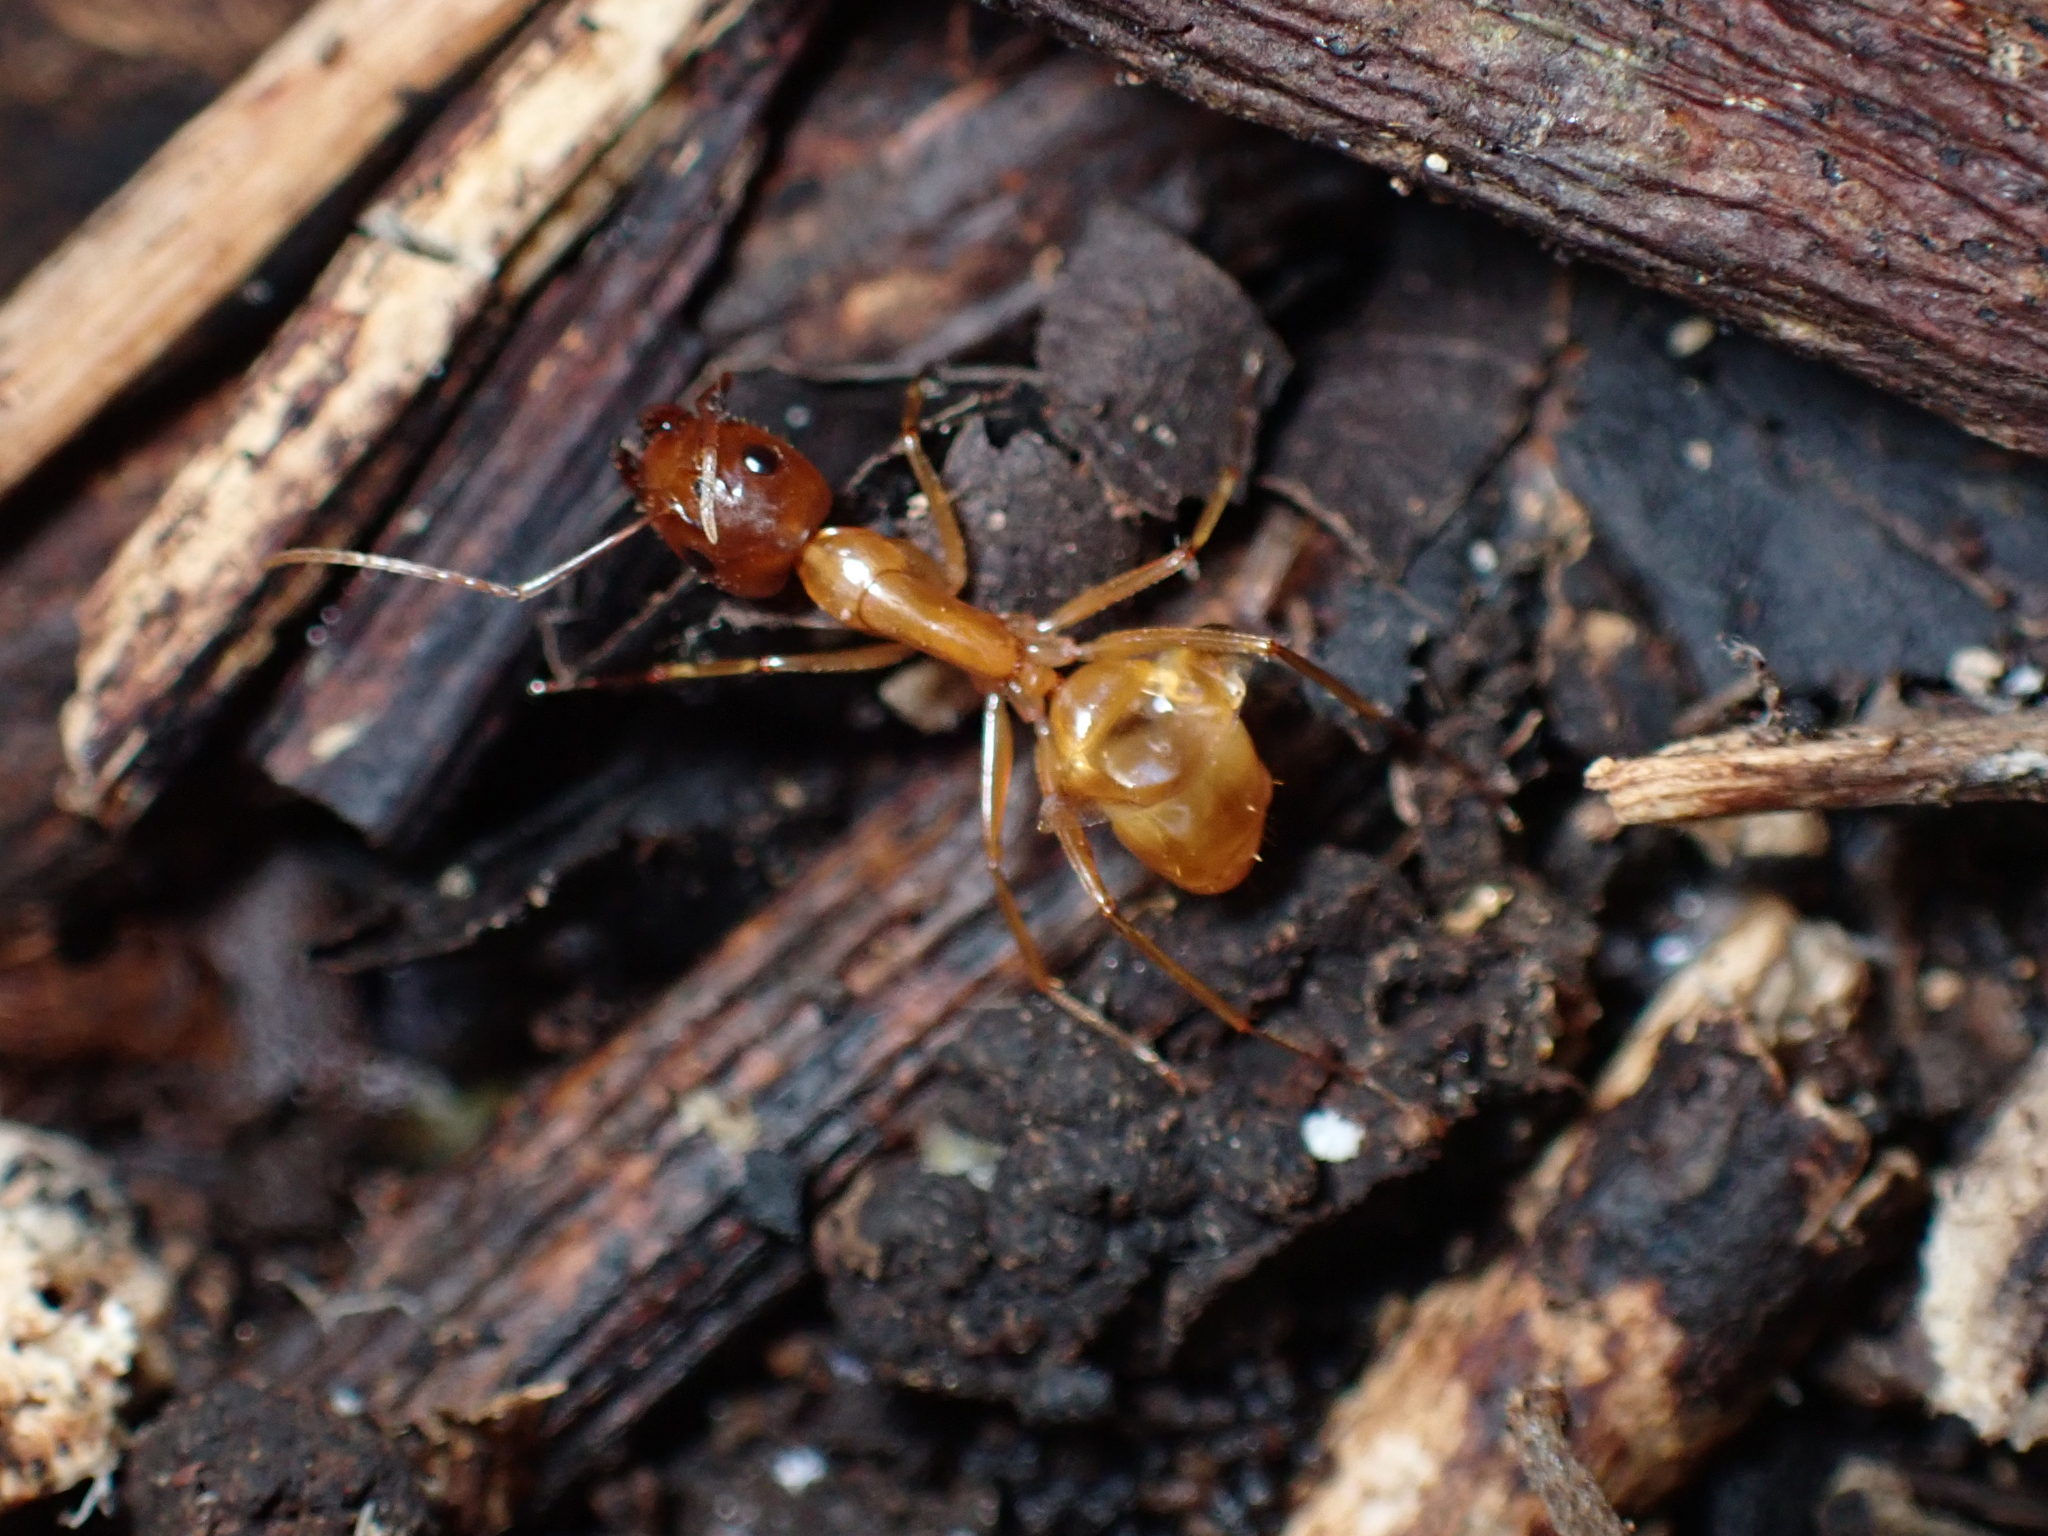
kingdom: Animalia
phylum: Arthropoda
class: Insecta
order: Hymenoptera
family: Formicidae
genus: Camponotus
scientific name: Camponotus chloroticus
